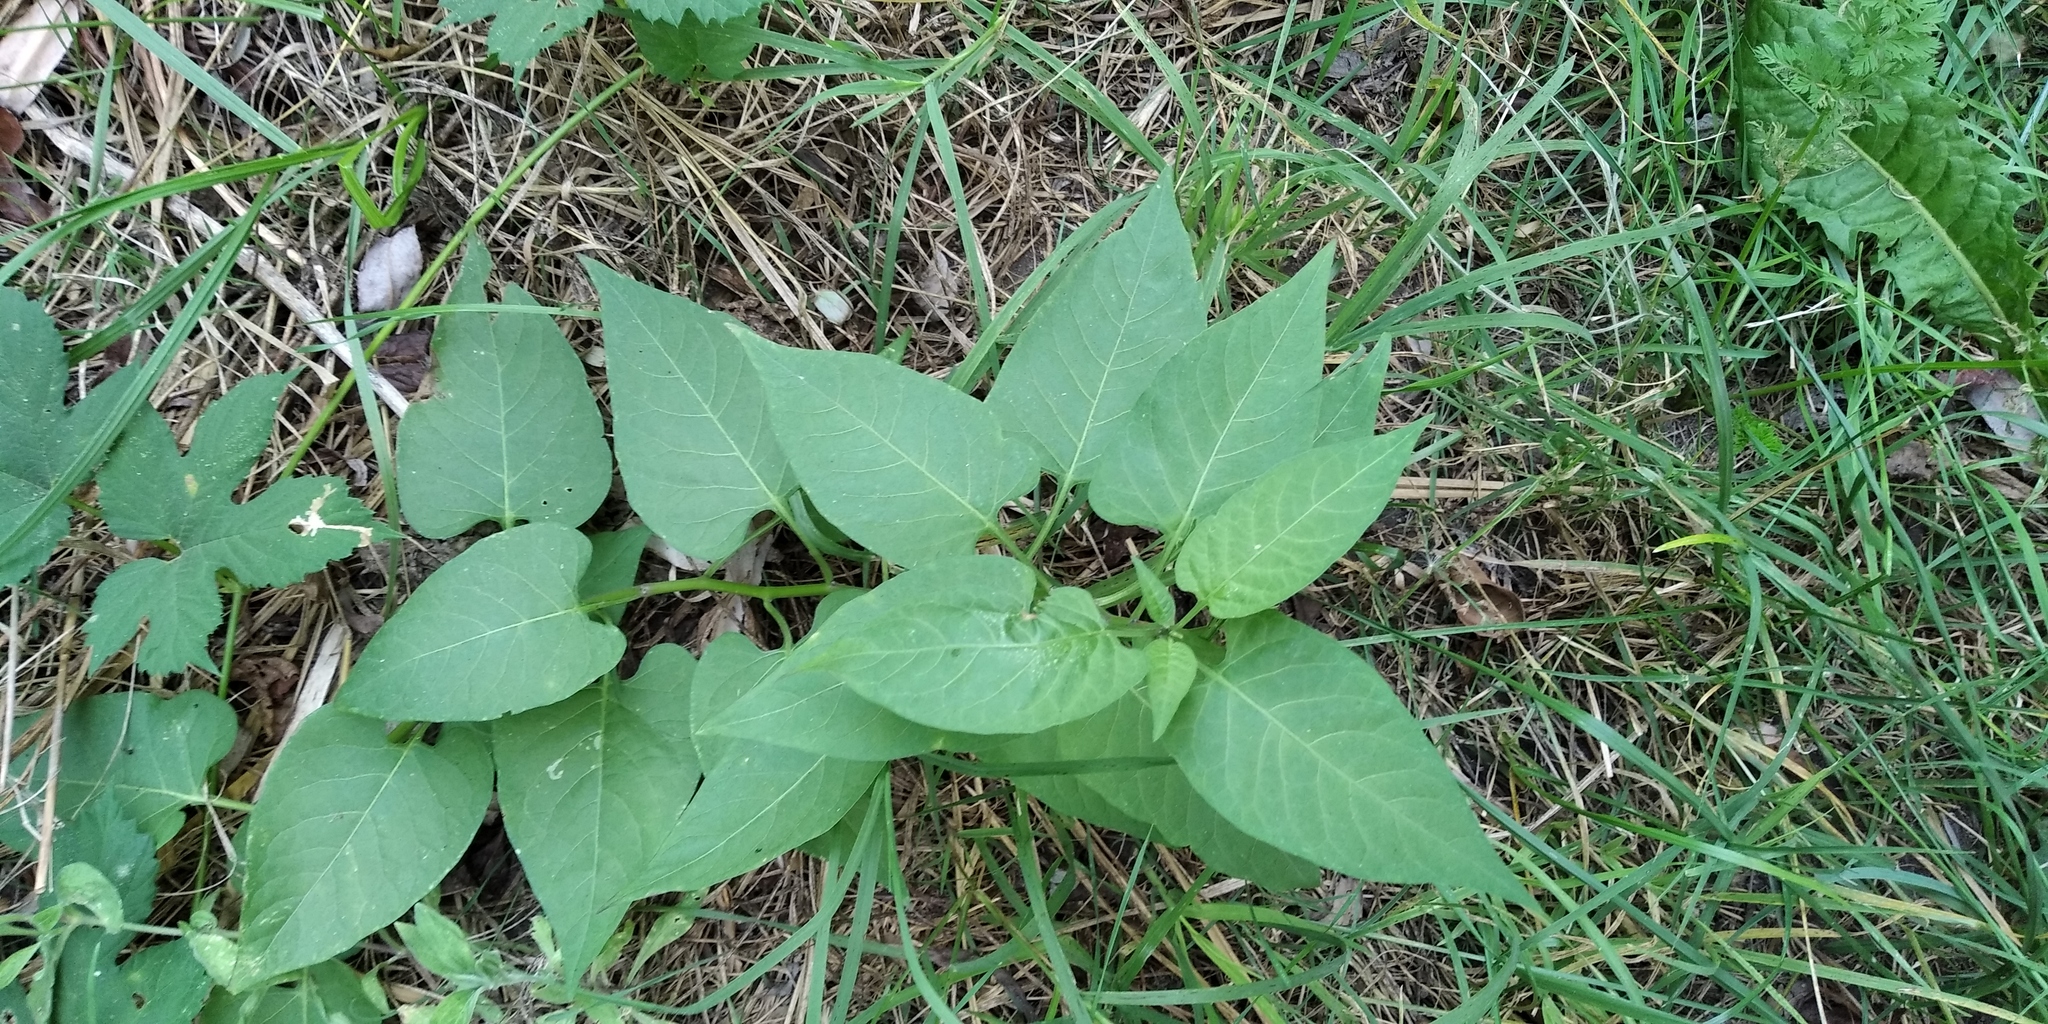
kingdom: Plantae
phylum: Tracheophyta
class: Magnoliopsida
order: Solanales
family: Solanaceae
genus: Solanum
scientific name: Solanum dulcamara
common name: Climbing nightshade
